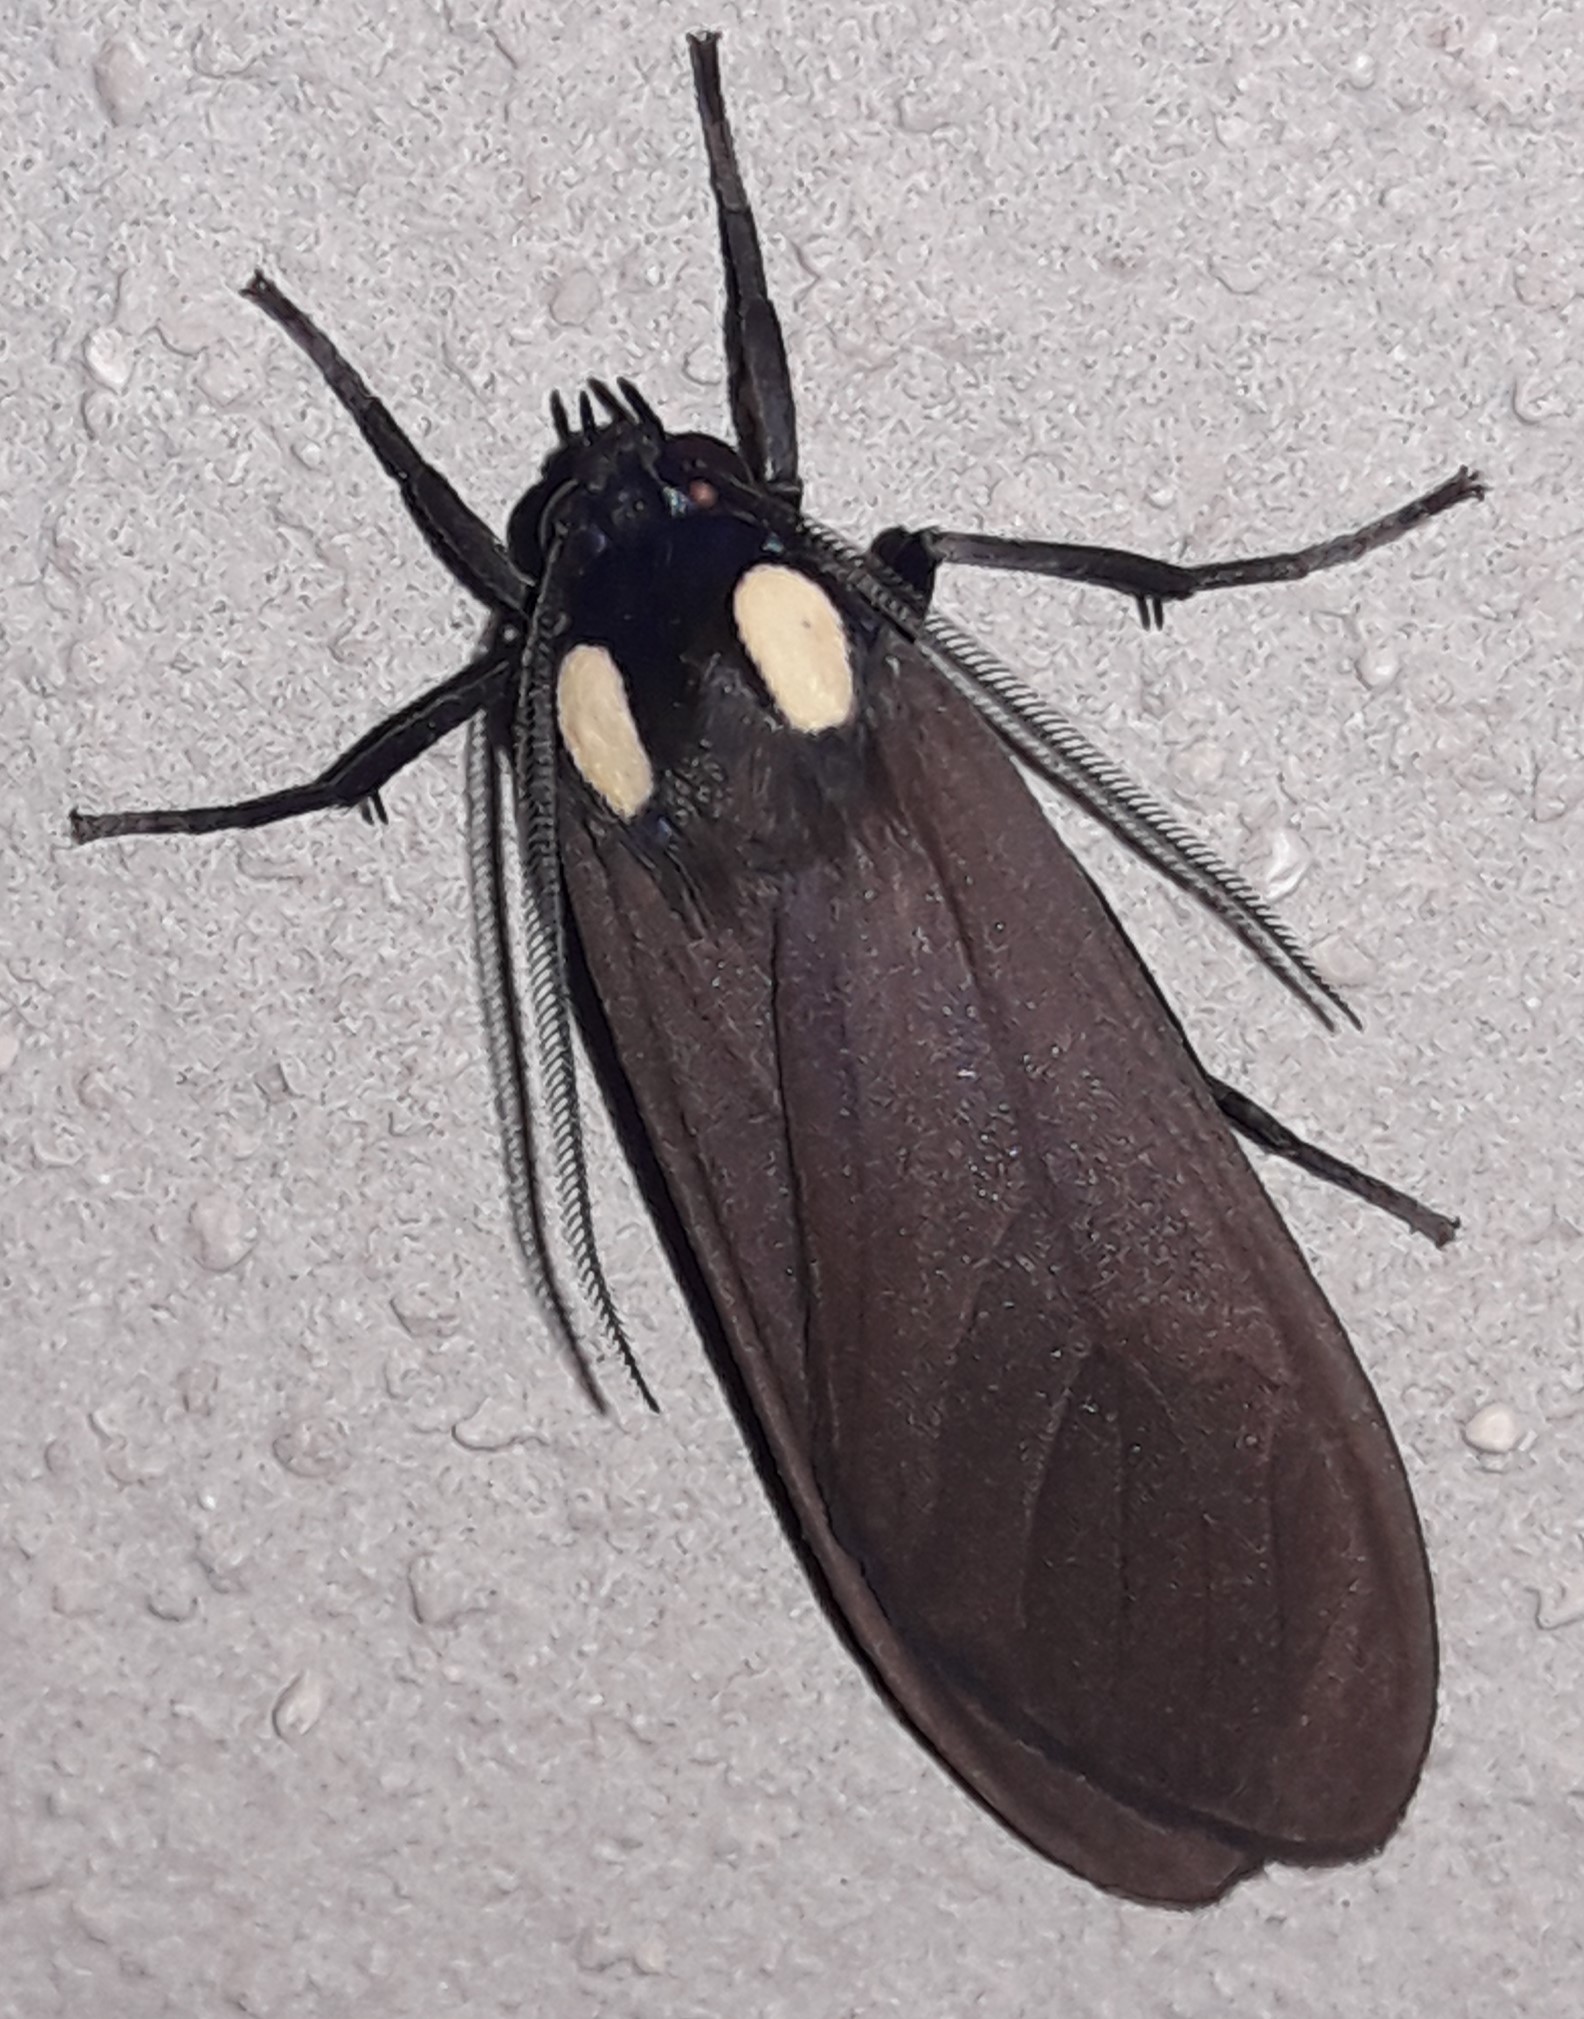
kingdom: Animalia
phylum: Arthropoda
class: Insecta
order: Lepidoptera
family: Erebidae
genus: Opharus
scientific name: Opharus bimaculata
